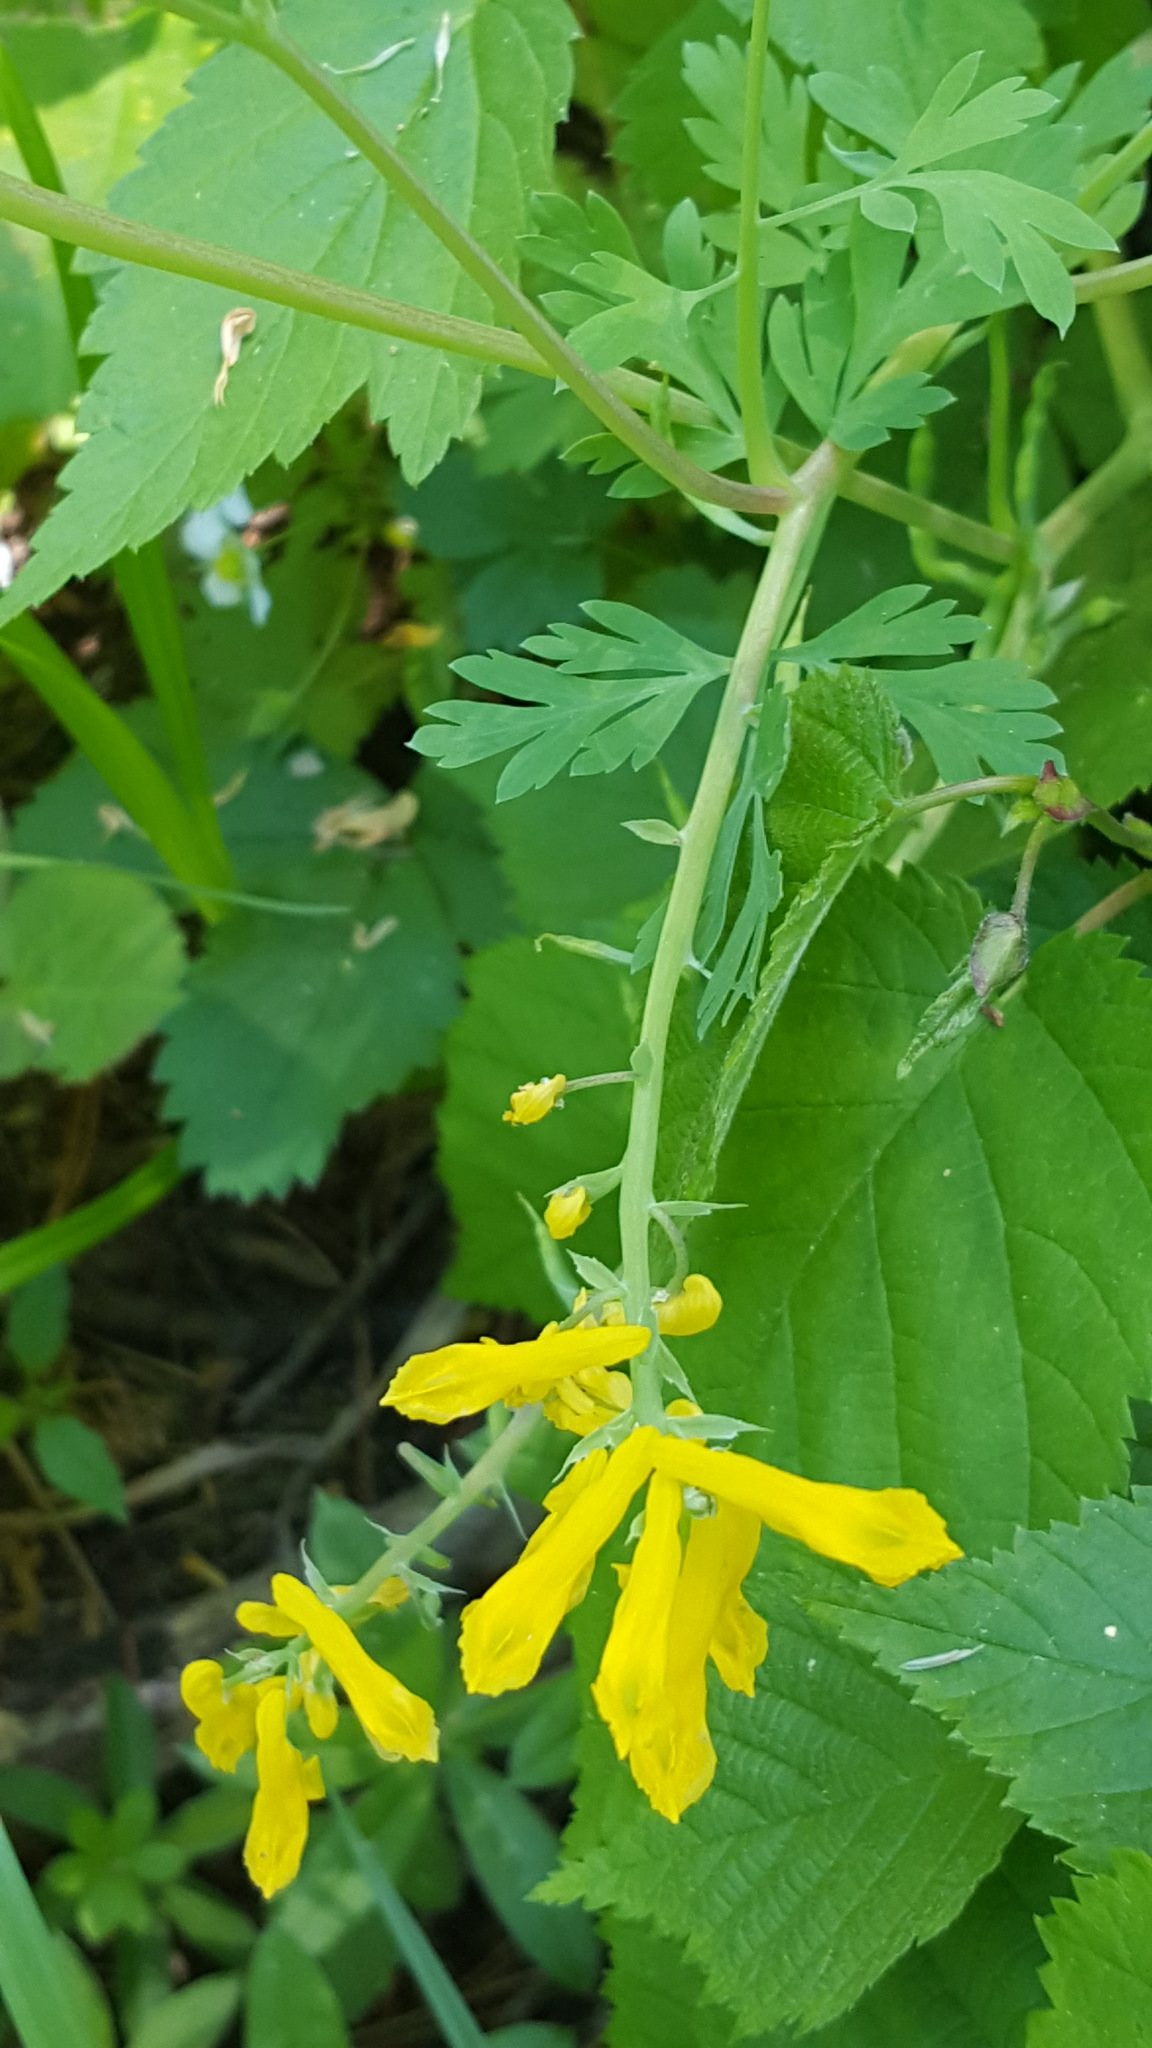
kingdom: Plantae
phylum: Tracheophyta
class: Magnoliopsida
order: Ranunculales
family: Papaveraceae
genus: Corydalis
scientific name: Corydalis aurea
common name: Golden corydalis
